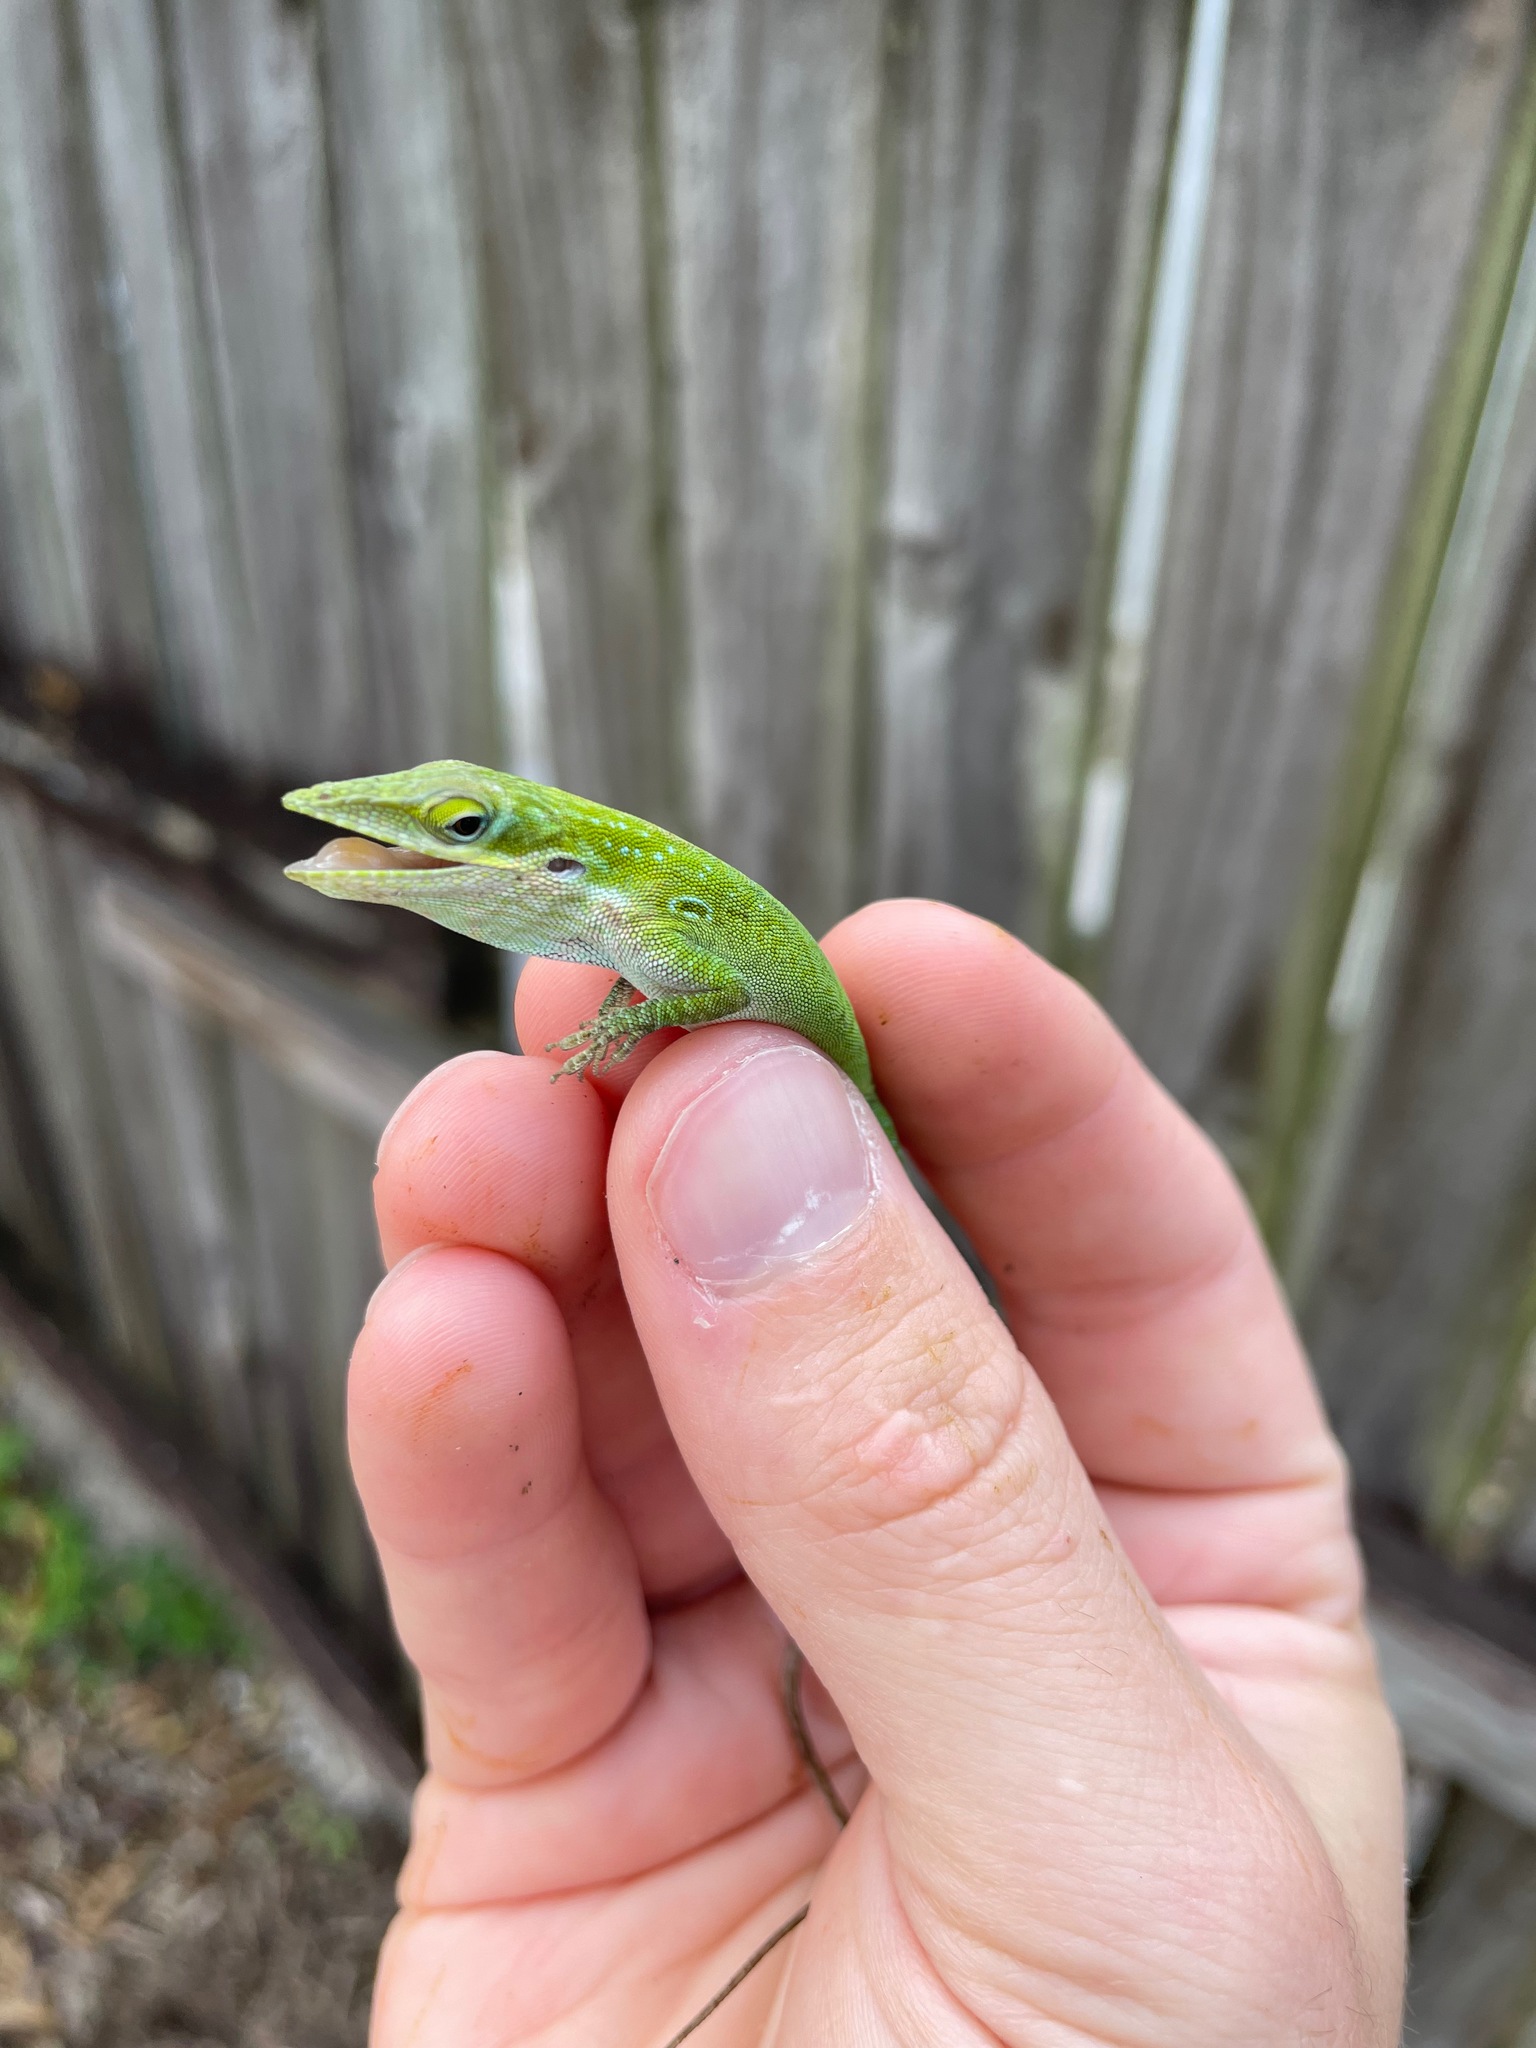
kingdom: Animalia
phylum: Chordata
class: Squamata
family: Dactyloidae
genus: Anolis
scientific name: Anolis allisoni
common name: Allison's anole
